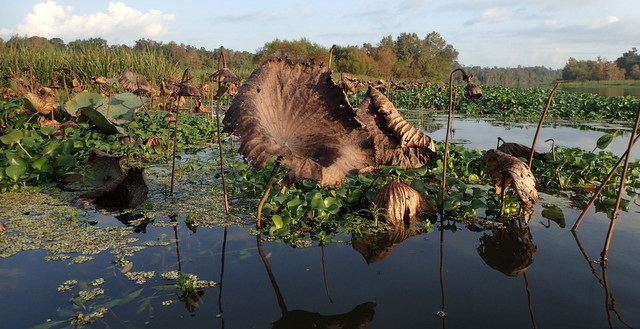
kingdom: Plantae
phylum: Tracheophyta
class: Magnoliopsida
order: Proteales
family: Nelumbonaceae
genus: Nelumbo
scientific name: Nelumbo lutea
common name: American lotus
